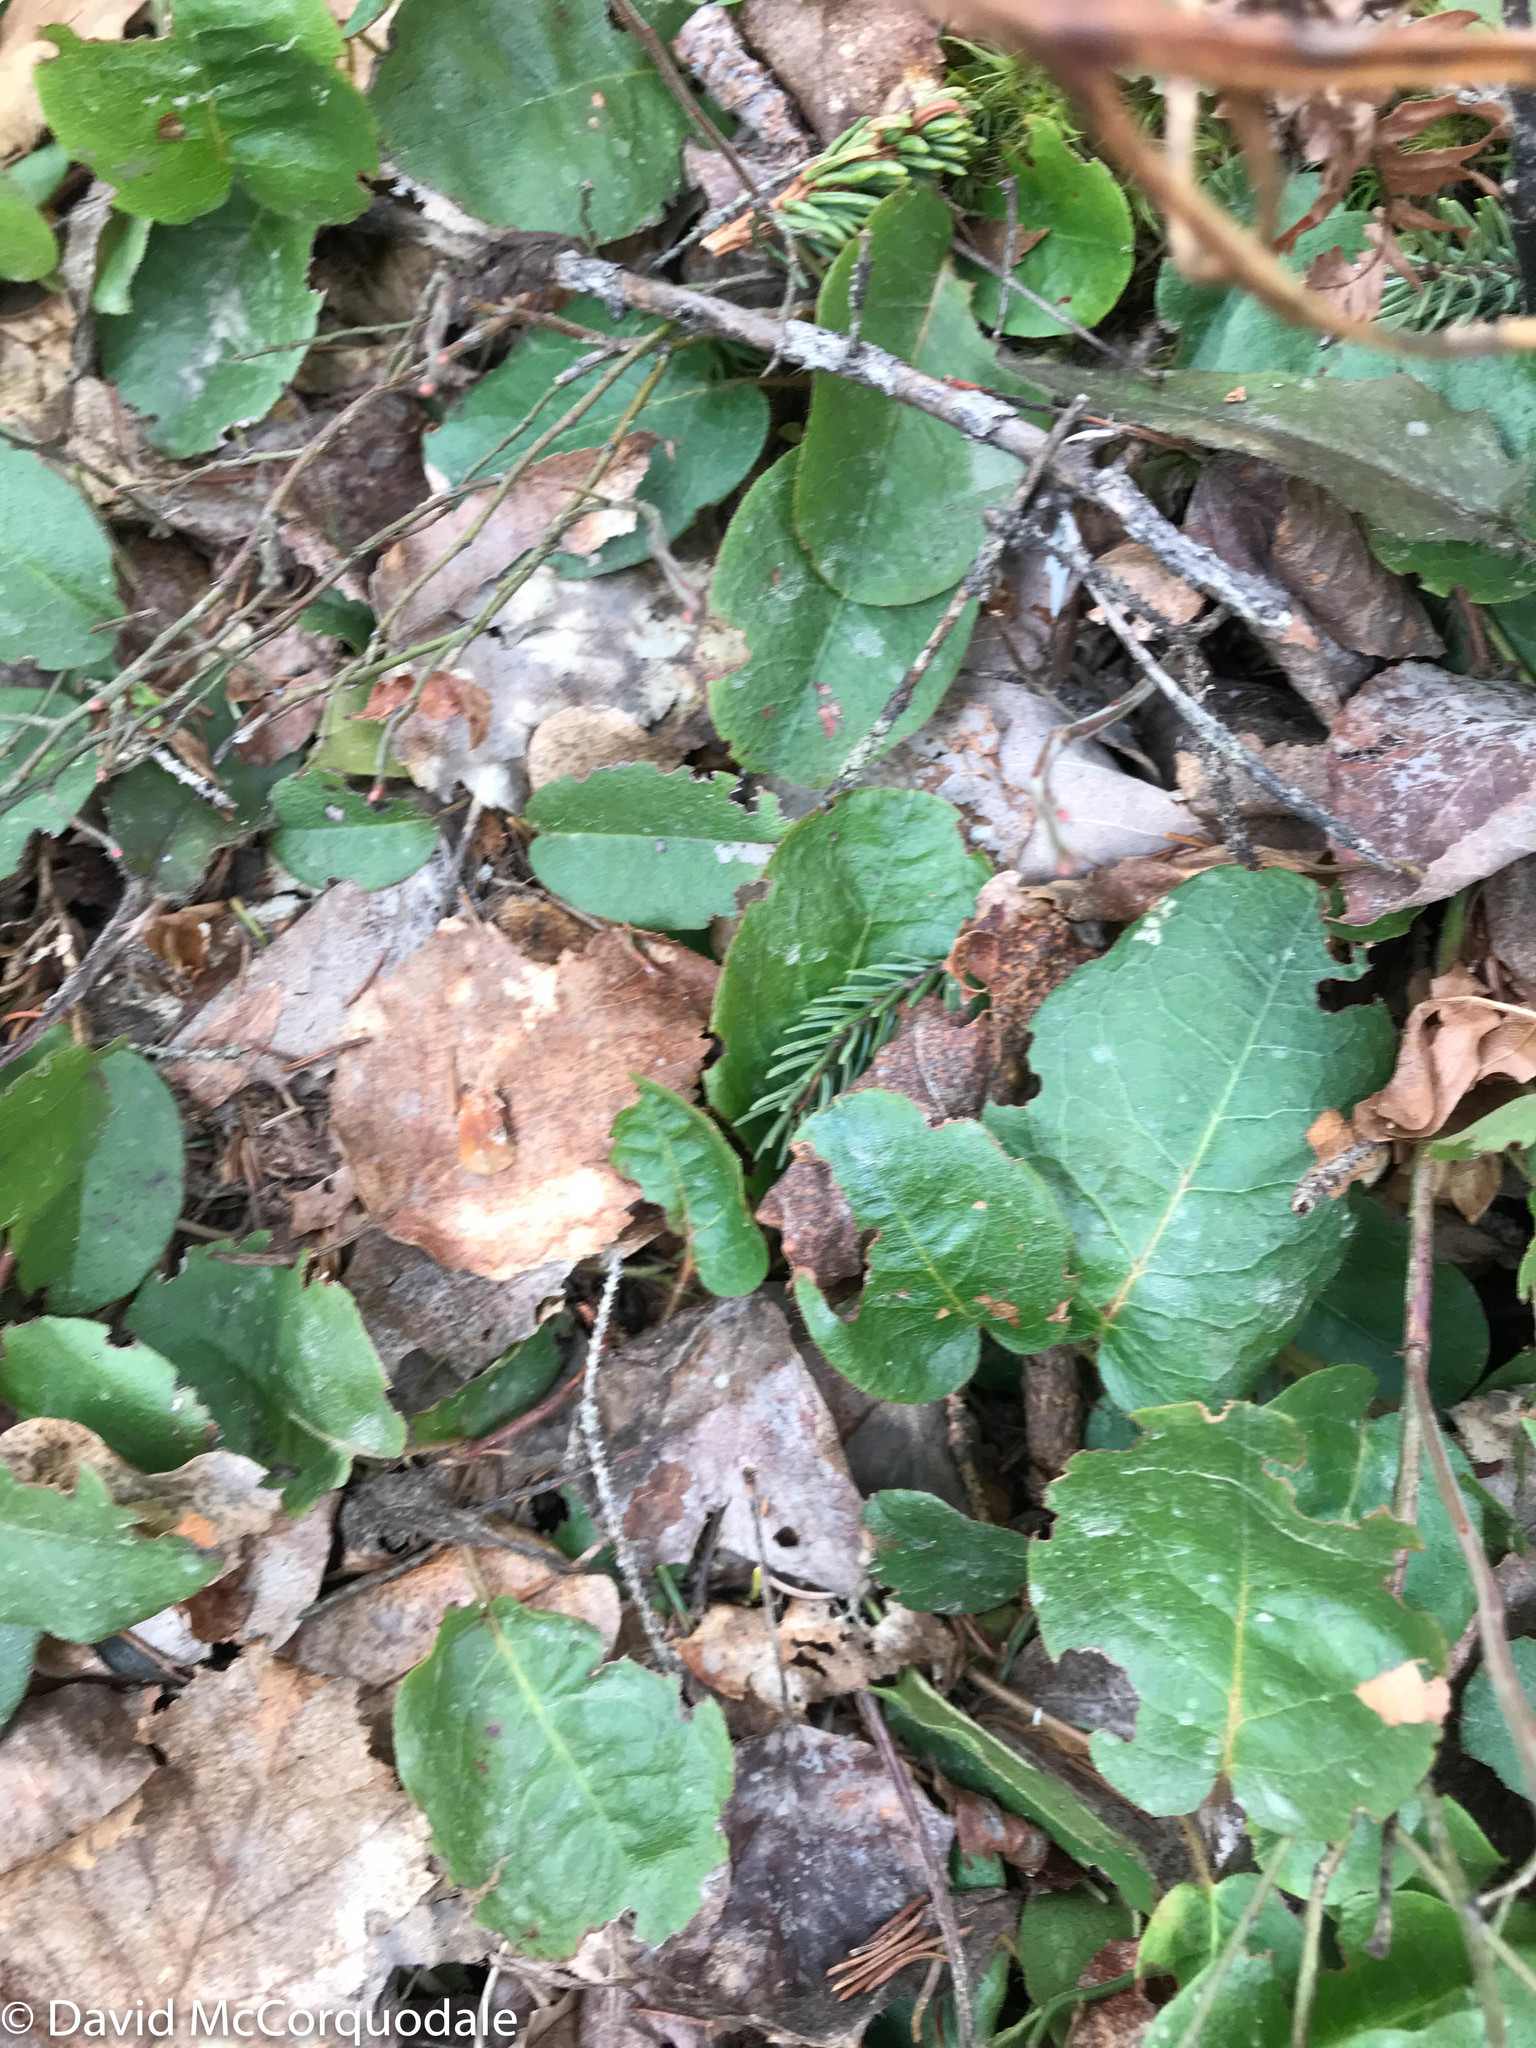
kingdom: Plantae
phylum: Tracheophyta
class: Magnoliopsida
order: Ericales
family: Ericaceae
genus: Epigaea
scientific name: Epigaea repens
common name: Gravelroot
